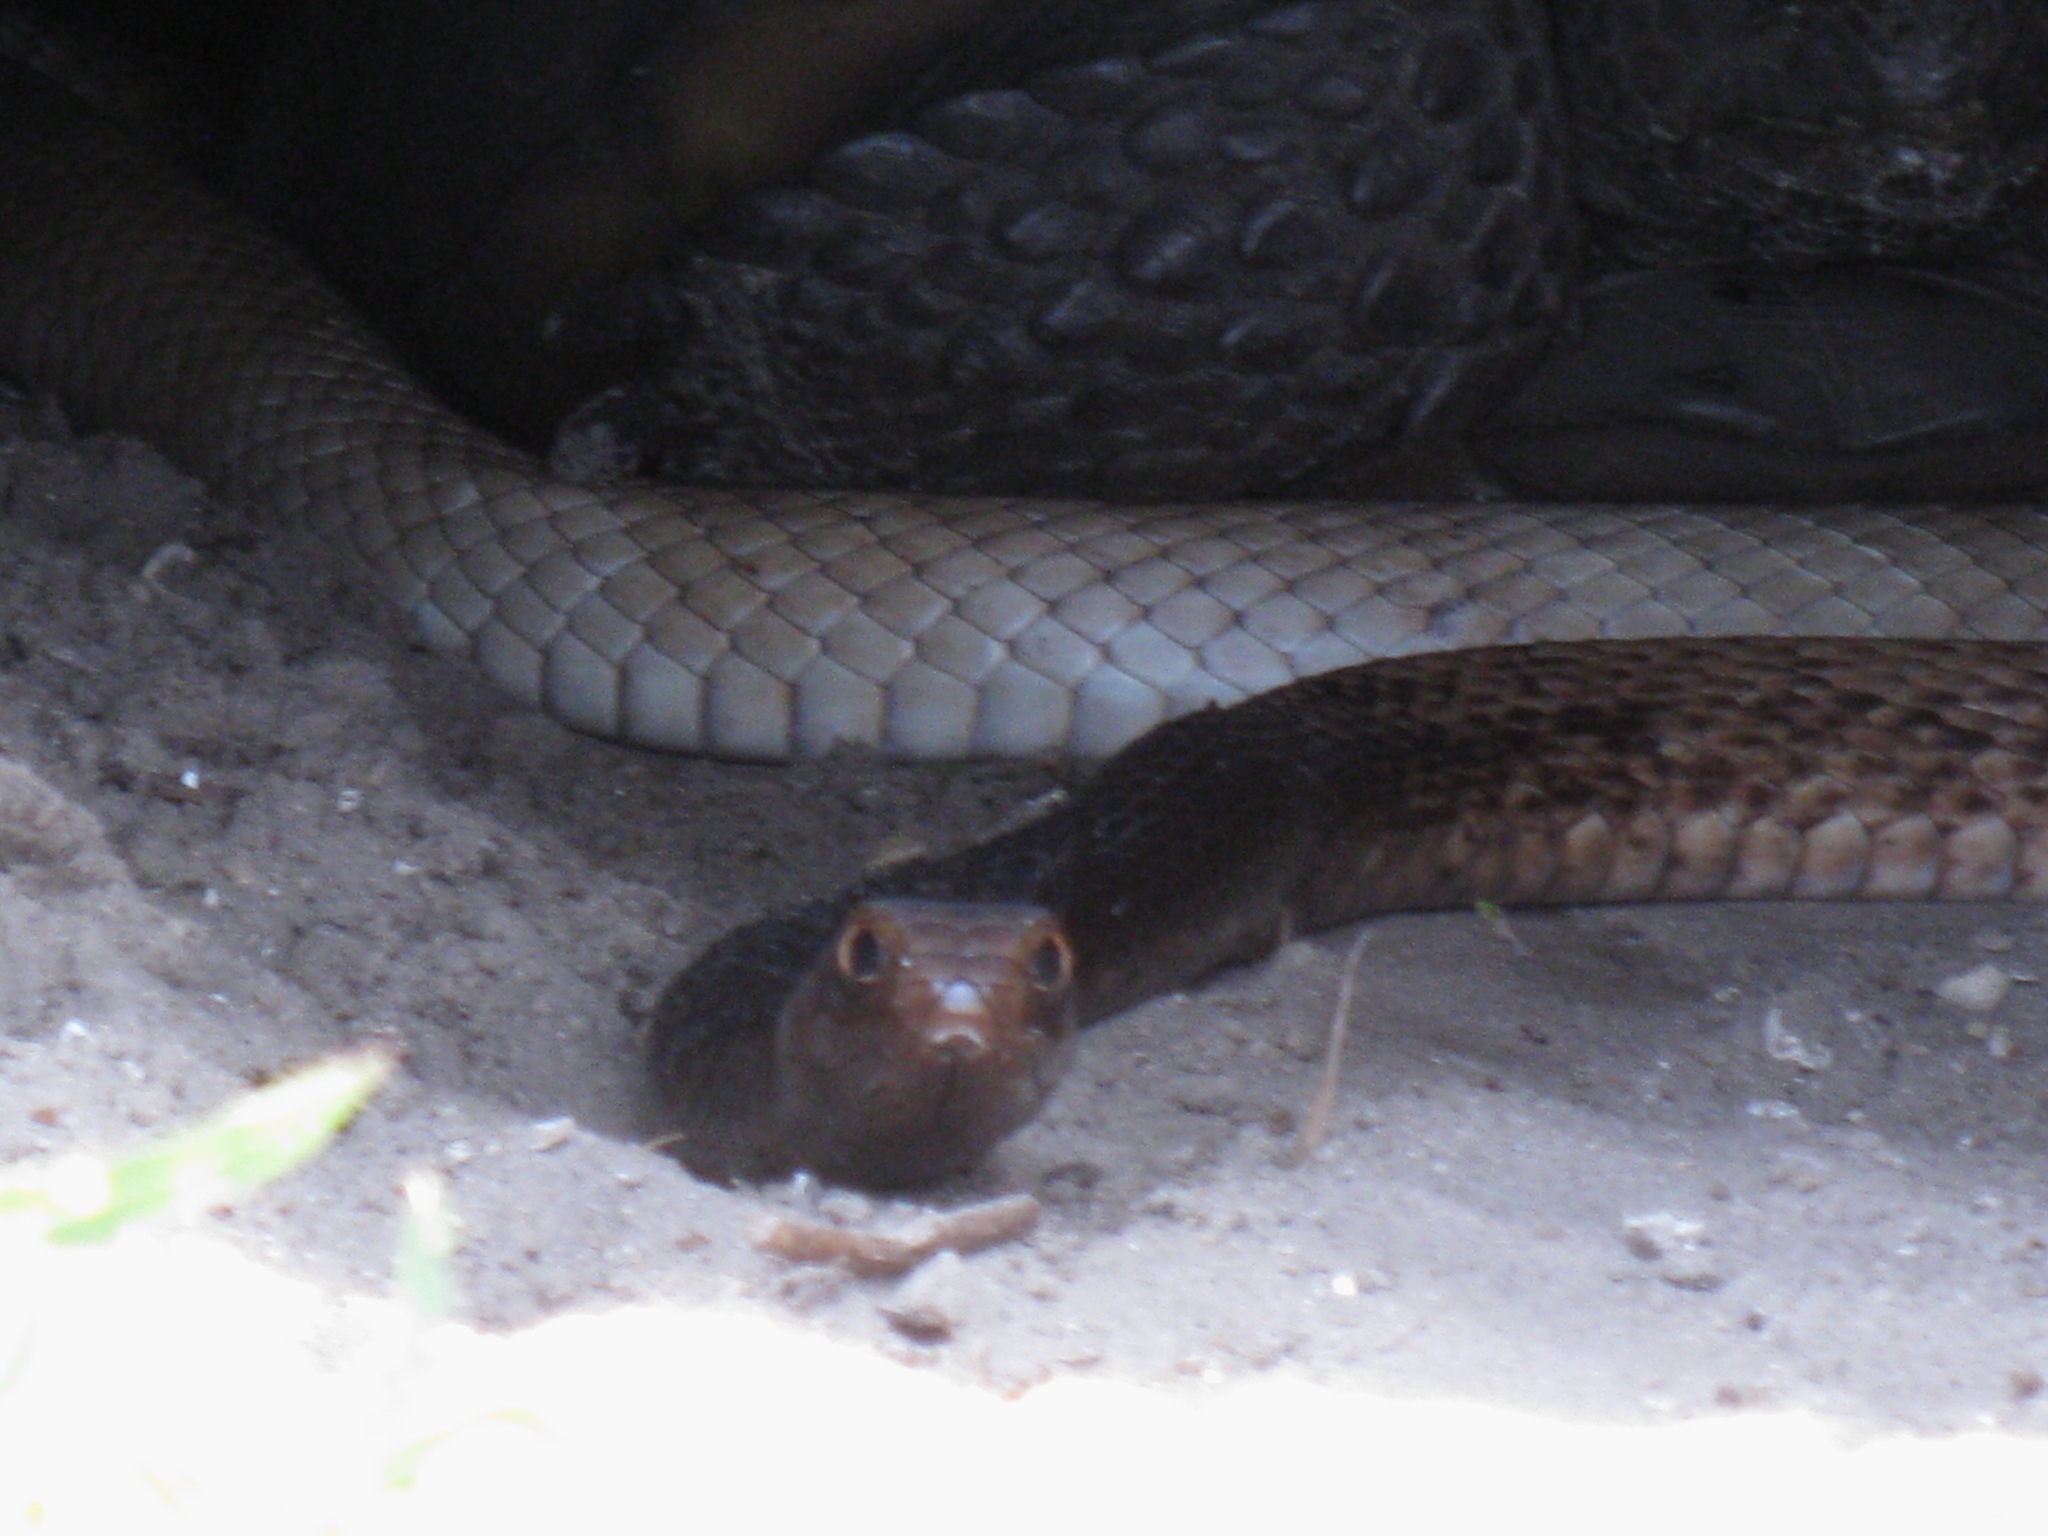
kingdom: Animalia
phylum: Chordata
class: Squamata
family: Colubridae
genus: Masticophis
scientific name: Masticophis flagellum
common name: Coachwhip
